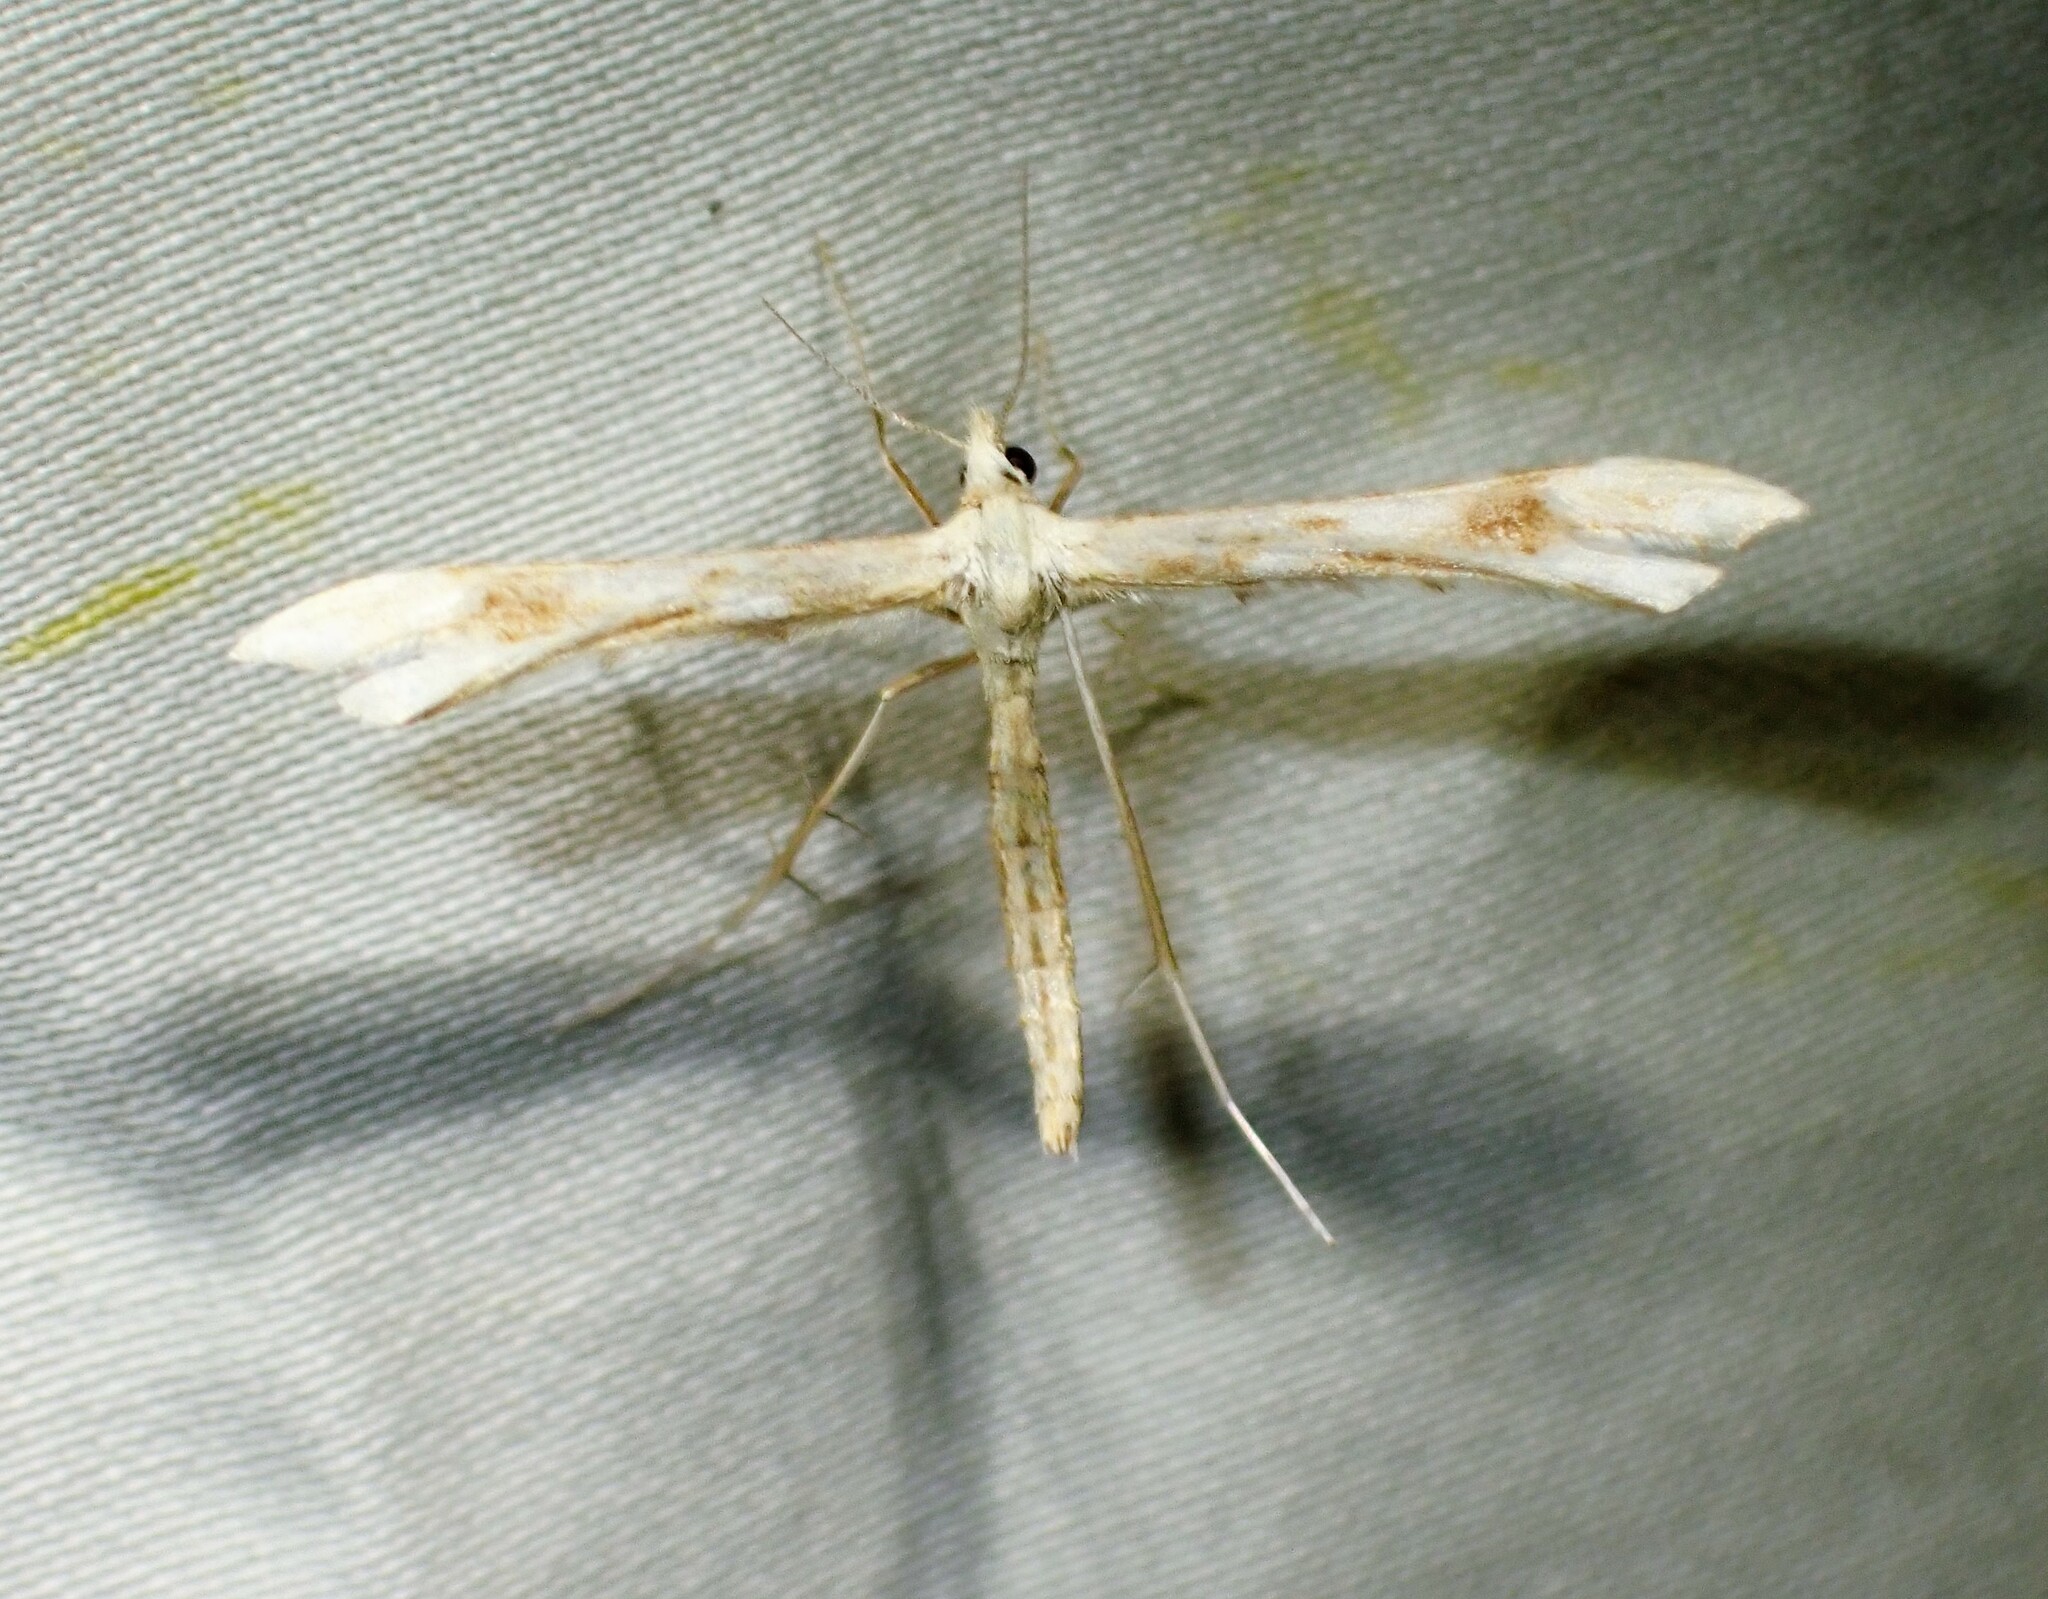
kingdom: Animalia
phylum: Arthropoda
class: Insecta
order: Lepidoptera
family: Pterophoridae
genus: Gillmeria
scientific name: Gillmeria pallidactyla
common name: Yarrow plume
